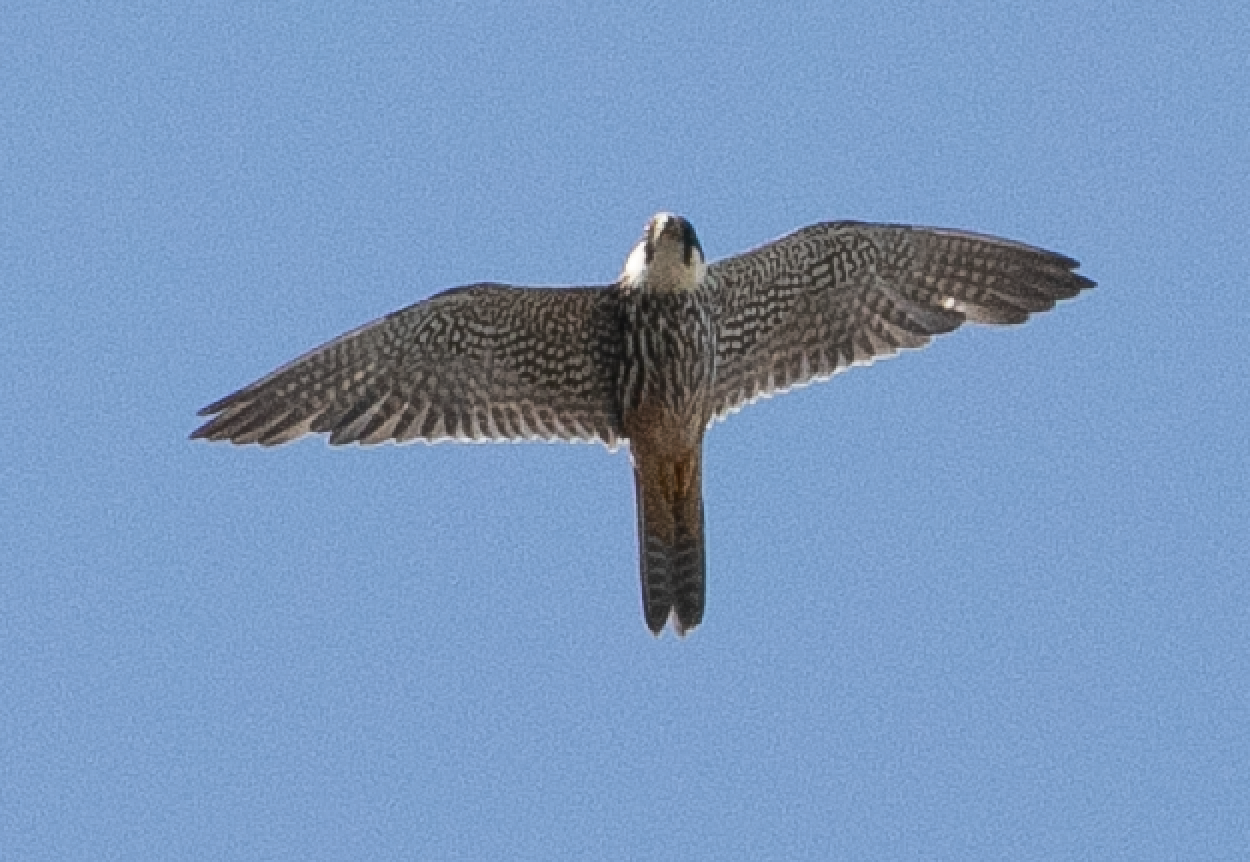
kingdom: Animalia
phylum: Chordata
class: Aves
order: Falconiformes
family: Falconidae
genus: Falco
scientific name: Falco subbuteo
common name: Eurasian hobby
